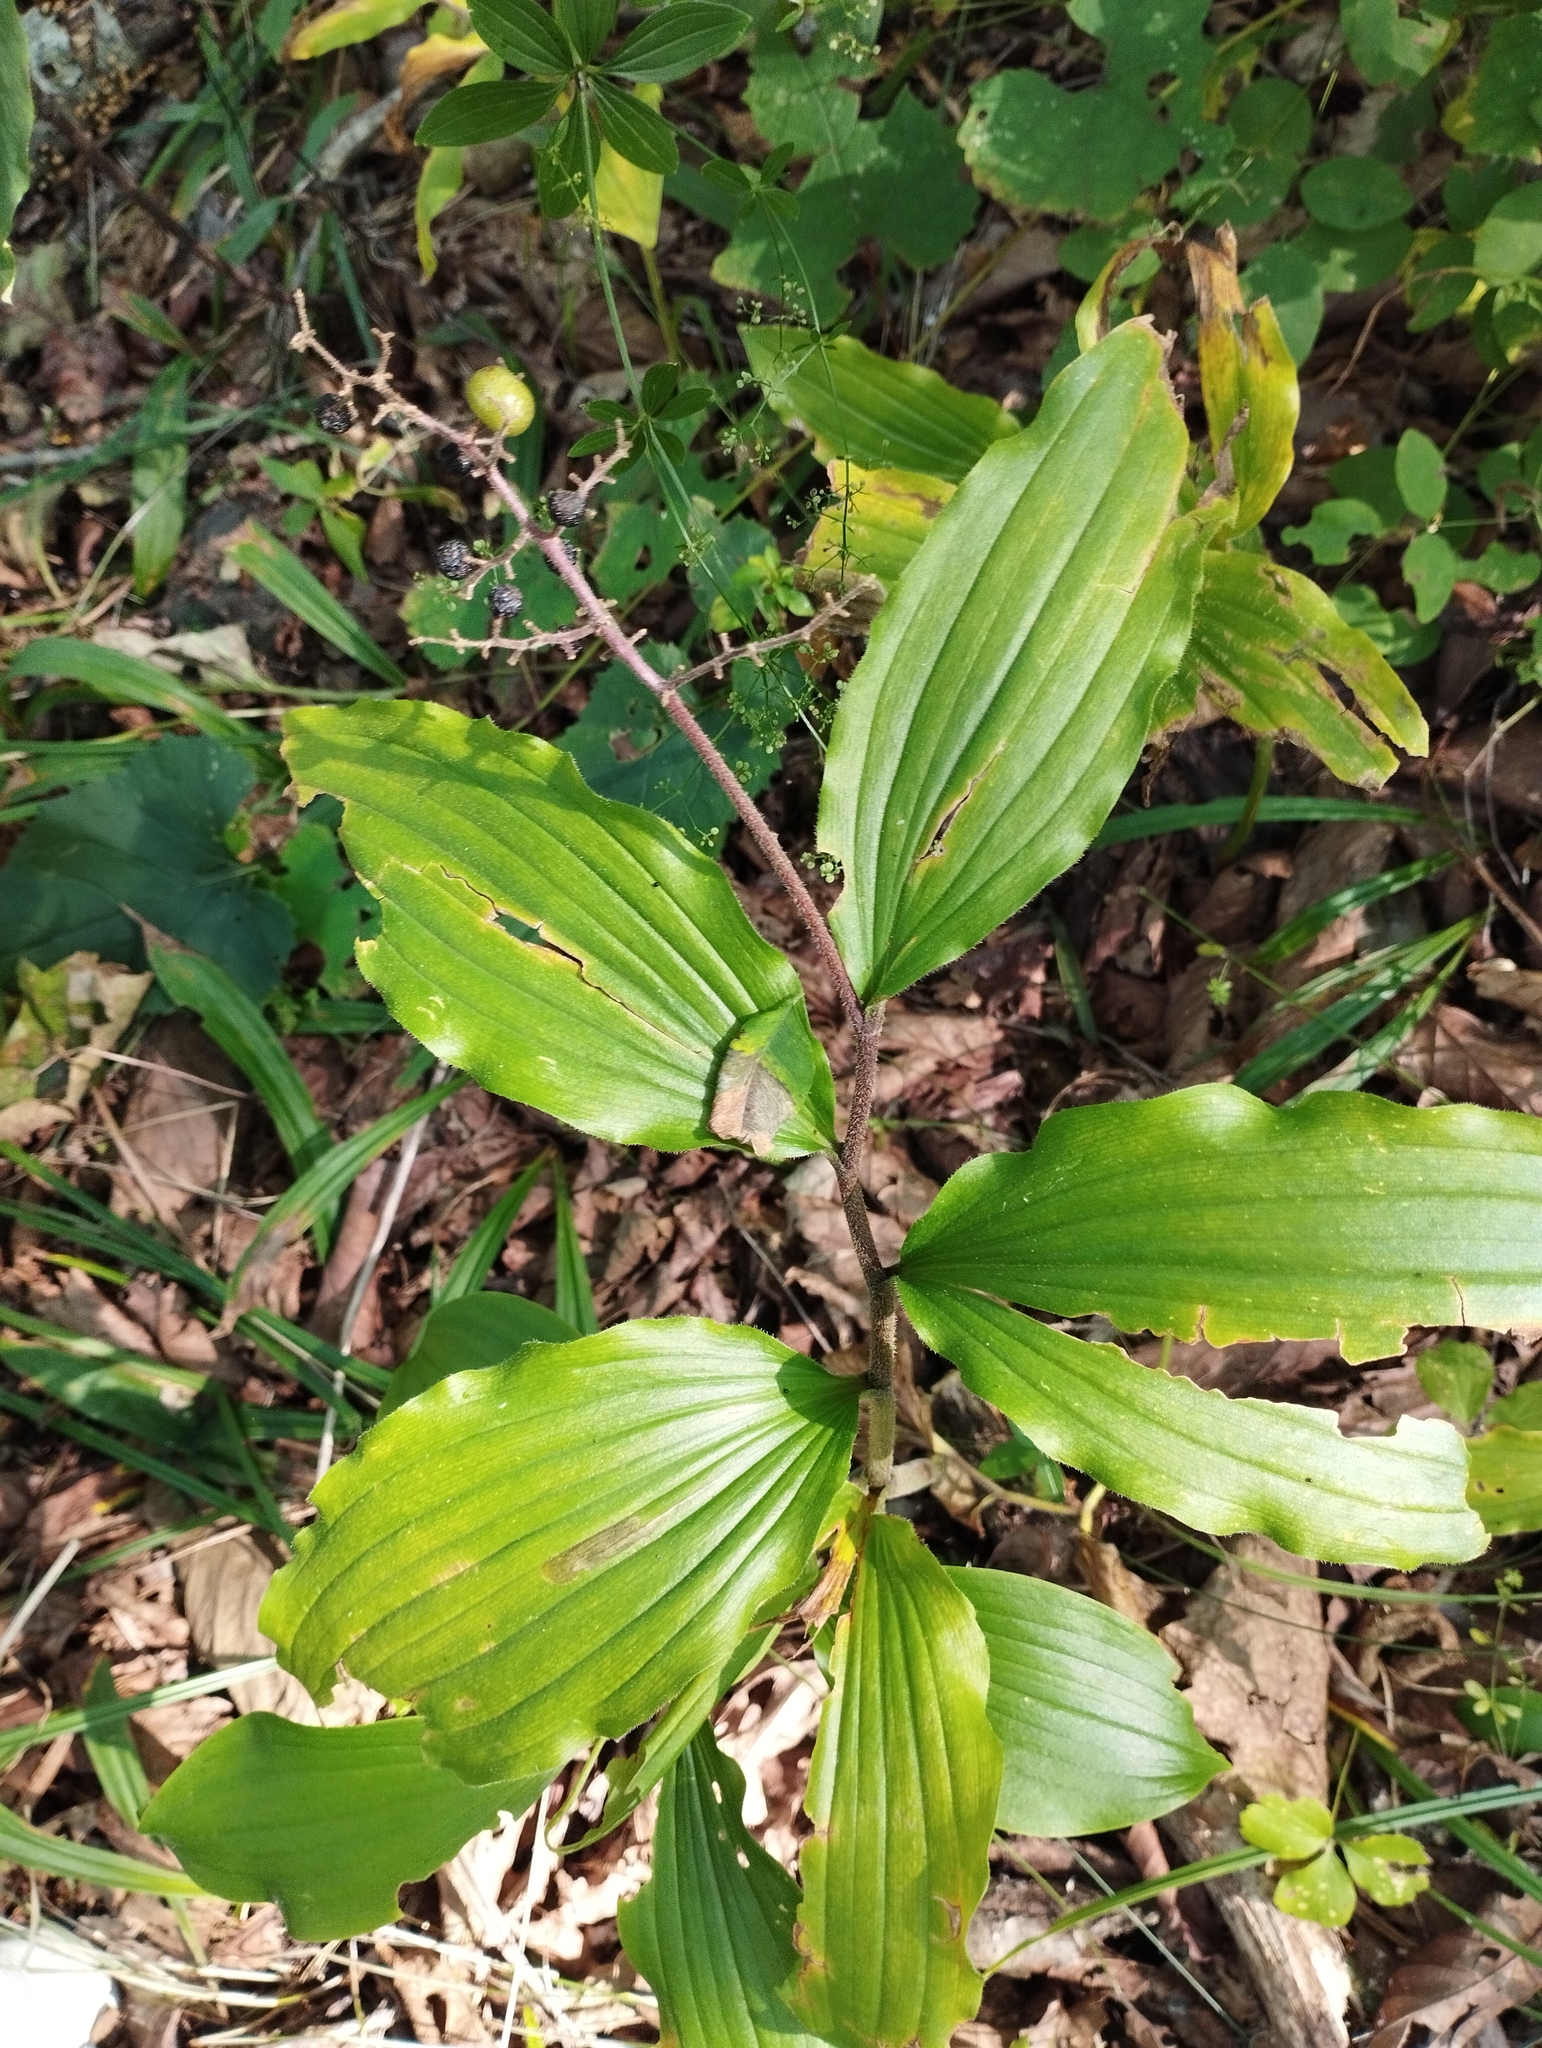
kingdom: Plantae
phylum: Tracheophyta
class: Liliopsida
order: Asparagales
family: Asparagaceae
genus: Maianthemum
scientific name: Maianthemum japonicum
